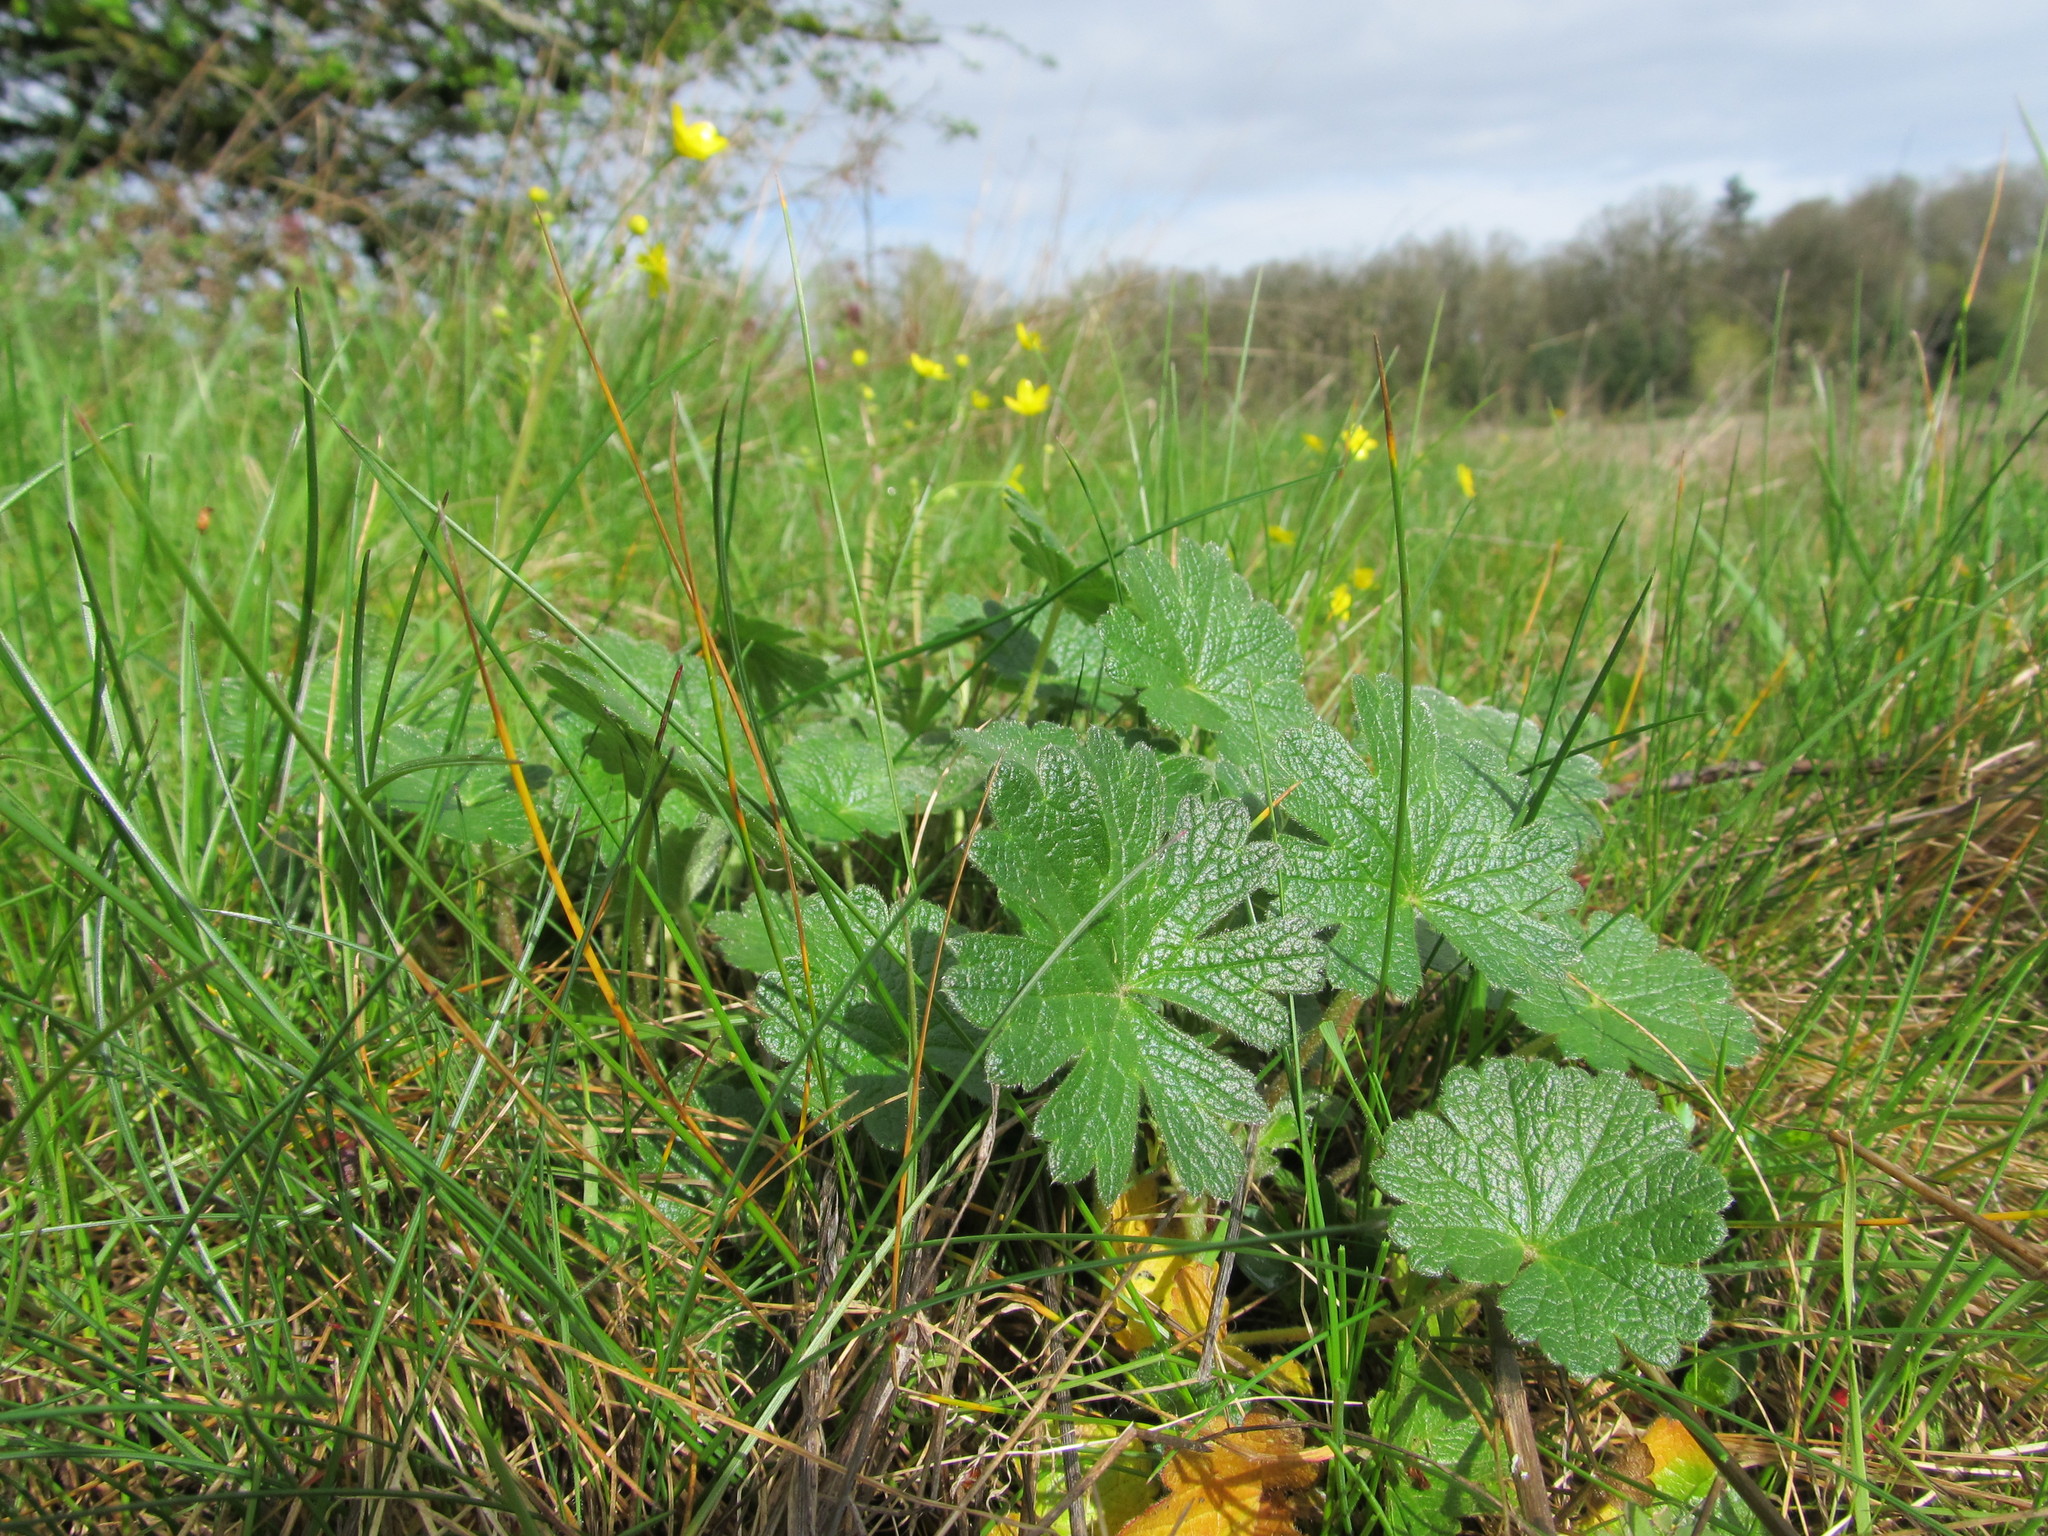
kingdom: Plantae
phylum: Tracheophyta
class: Magnoliopsida
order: Malvales
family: Malvaceae
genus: Sidalcea
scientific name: Sidalcea malviflora
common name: Greek mallow
